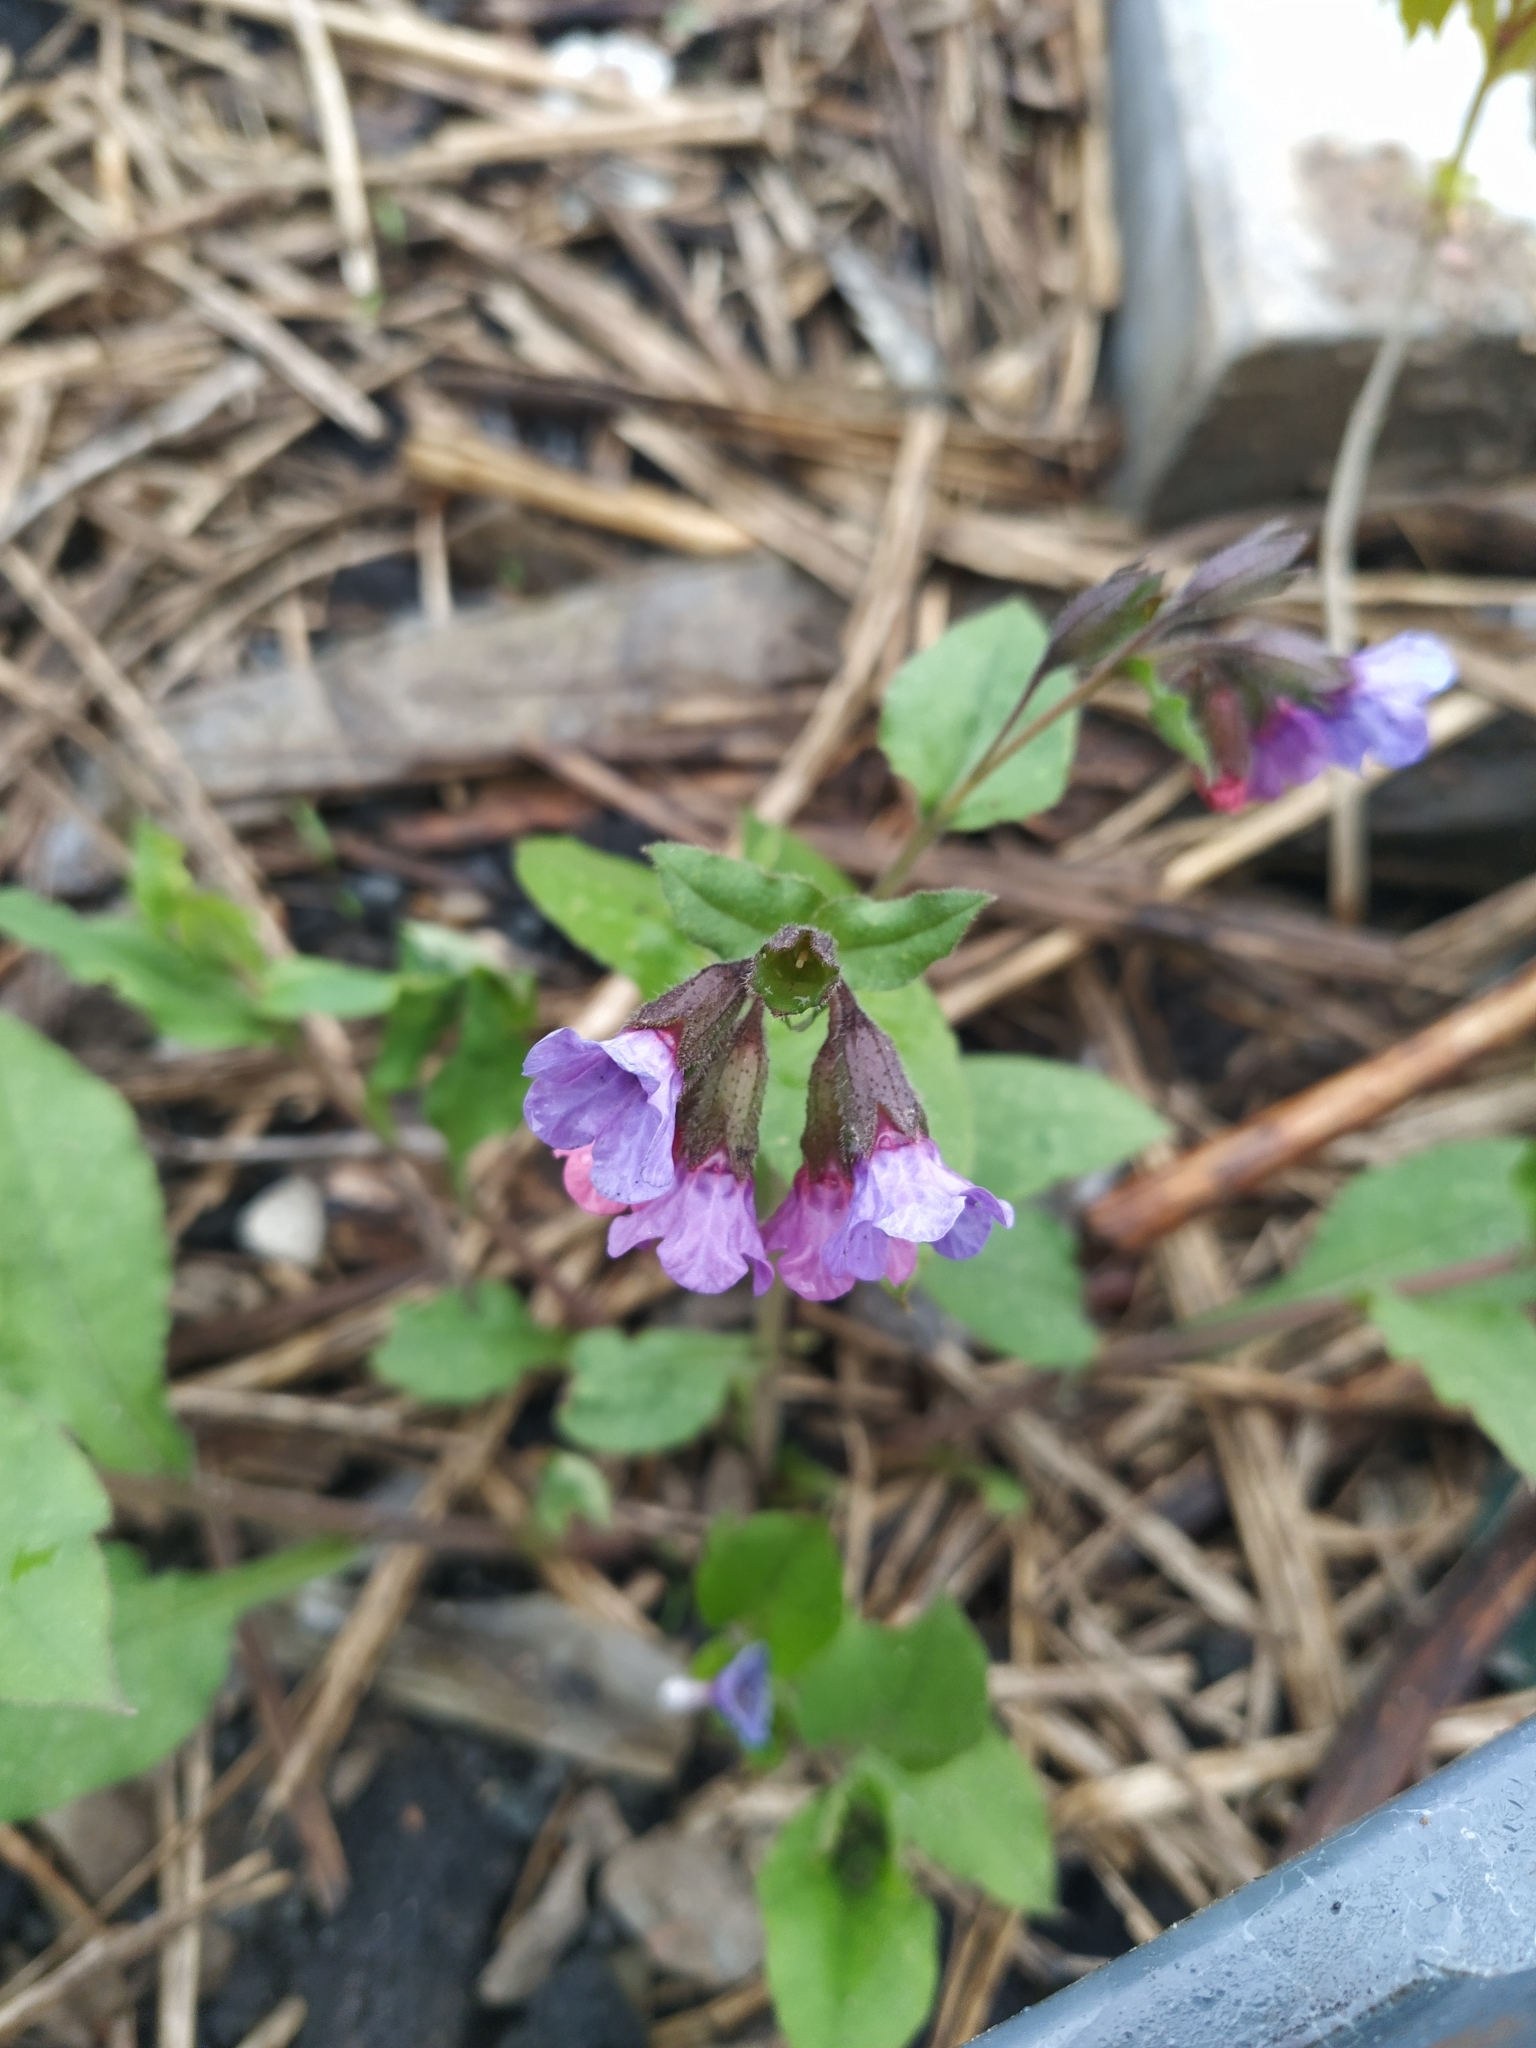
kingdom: Plantae
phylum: Tracheophyta
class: Magnoliopsida
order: Boraginales
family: Boraginaceae
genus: Pulmonaria
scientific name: Pulmonaria obscura
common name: Suffolk lungwort
